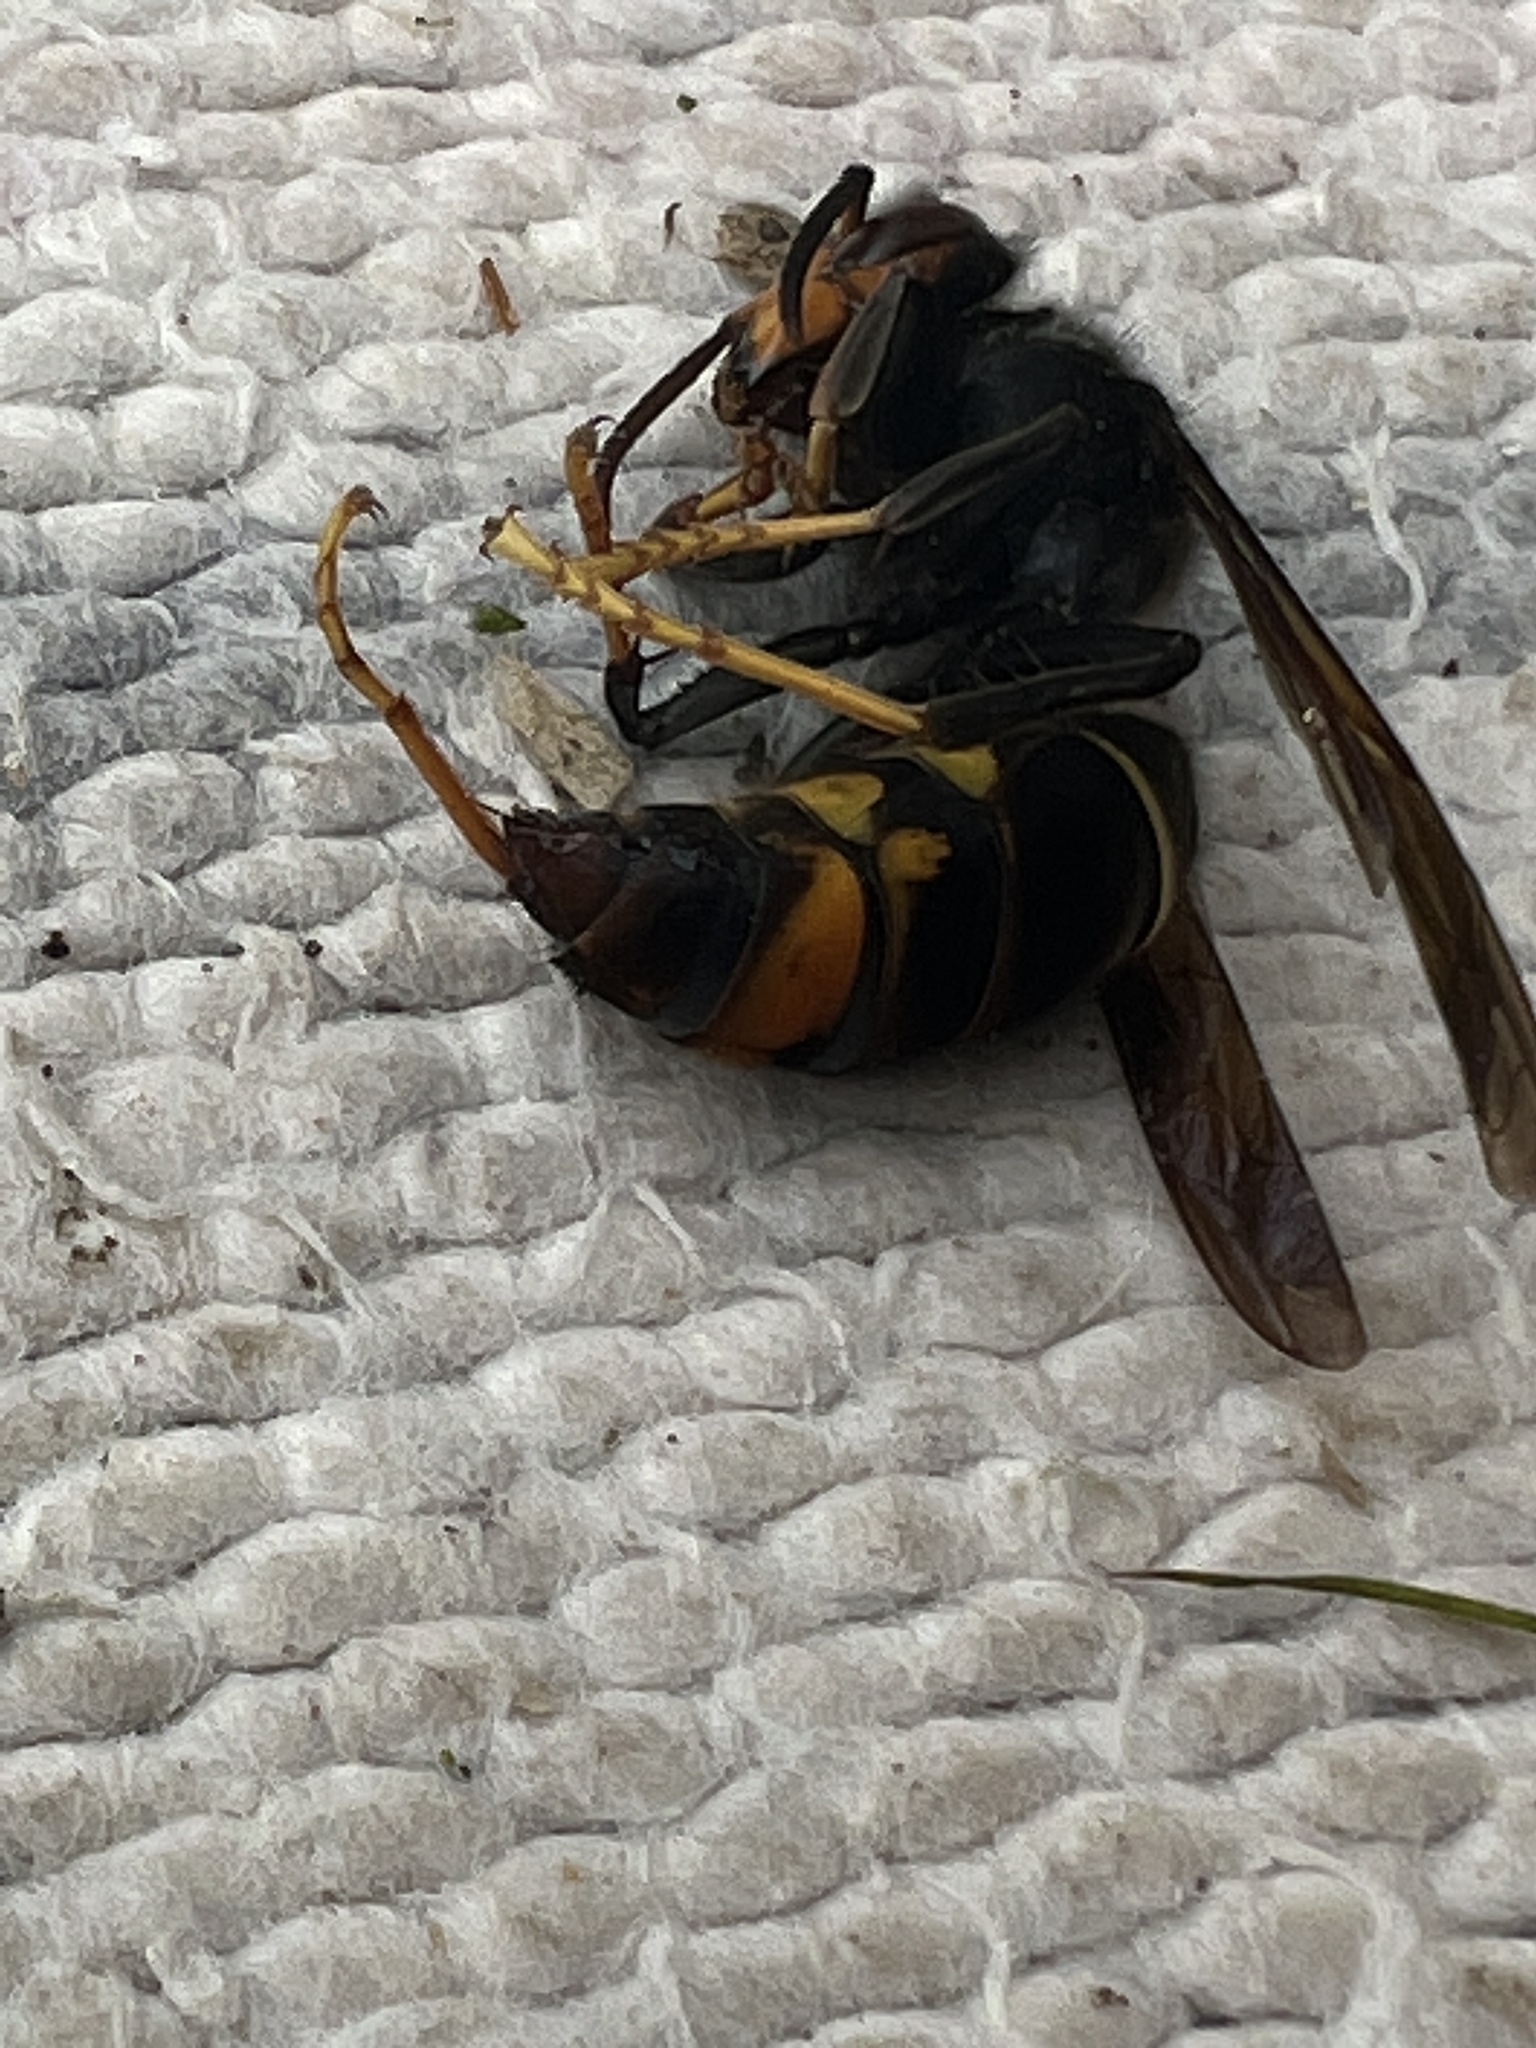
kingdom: Animalia
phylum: Arthropoda
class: Insecta
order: Hymenoptera
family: Vespidae
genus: Vespa
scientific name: Vespa velutina
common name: Asian hornet
